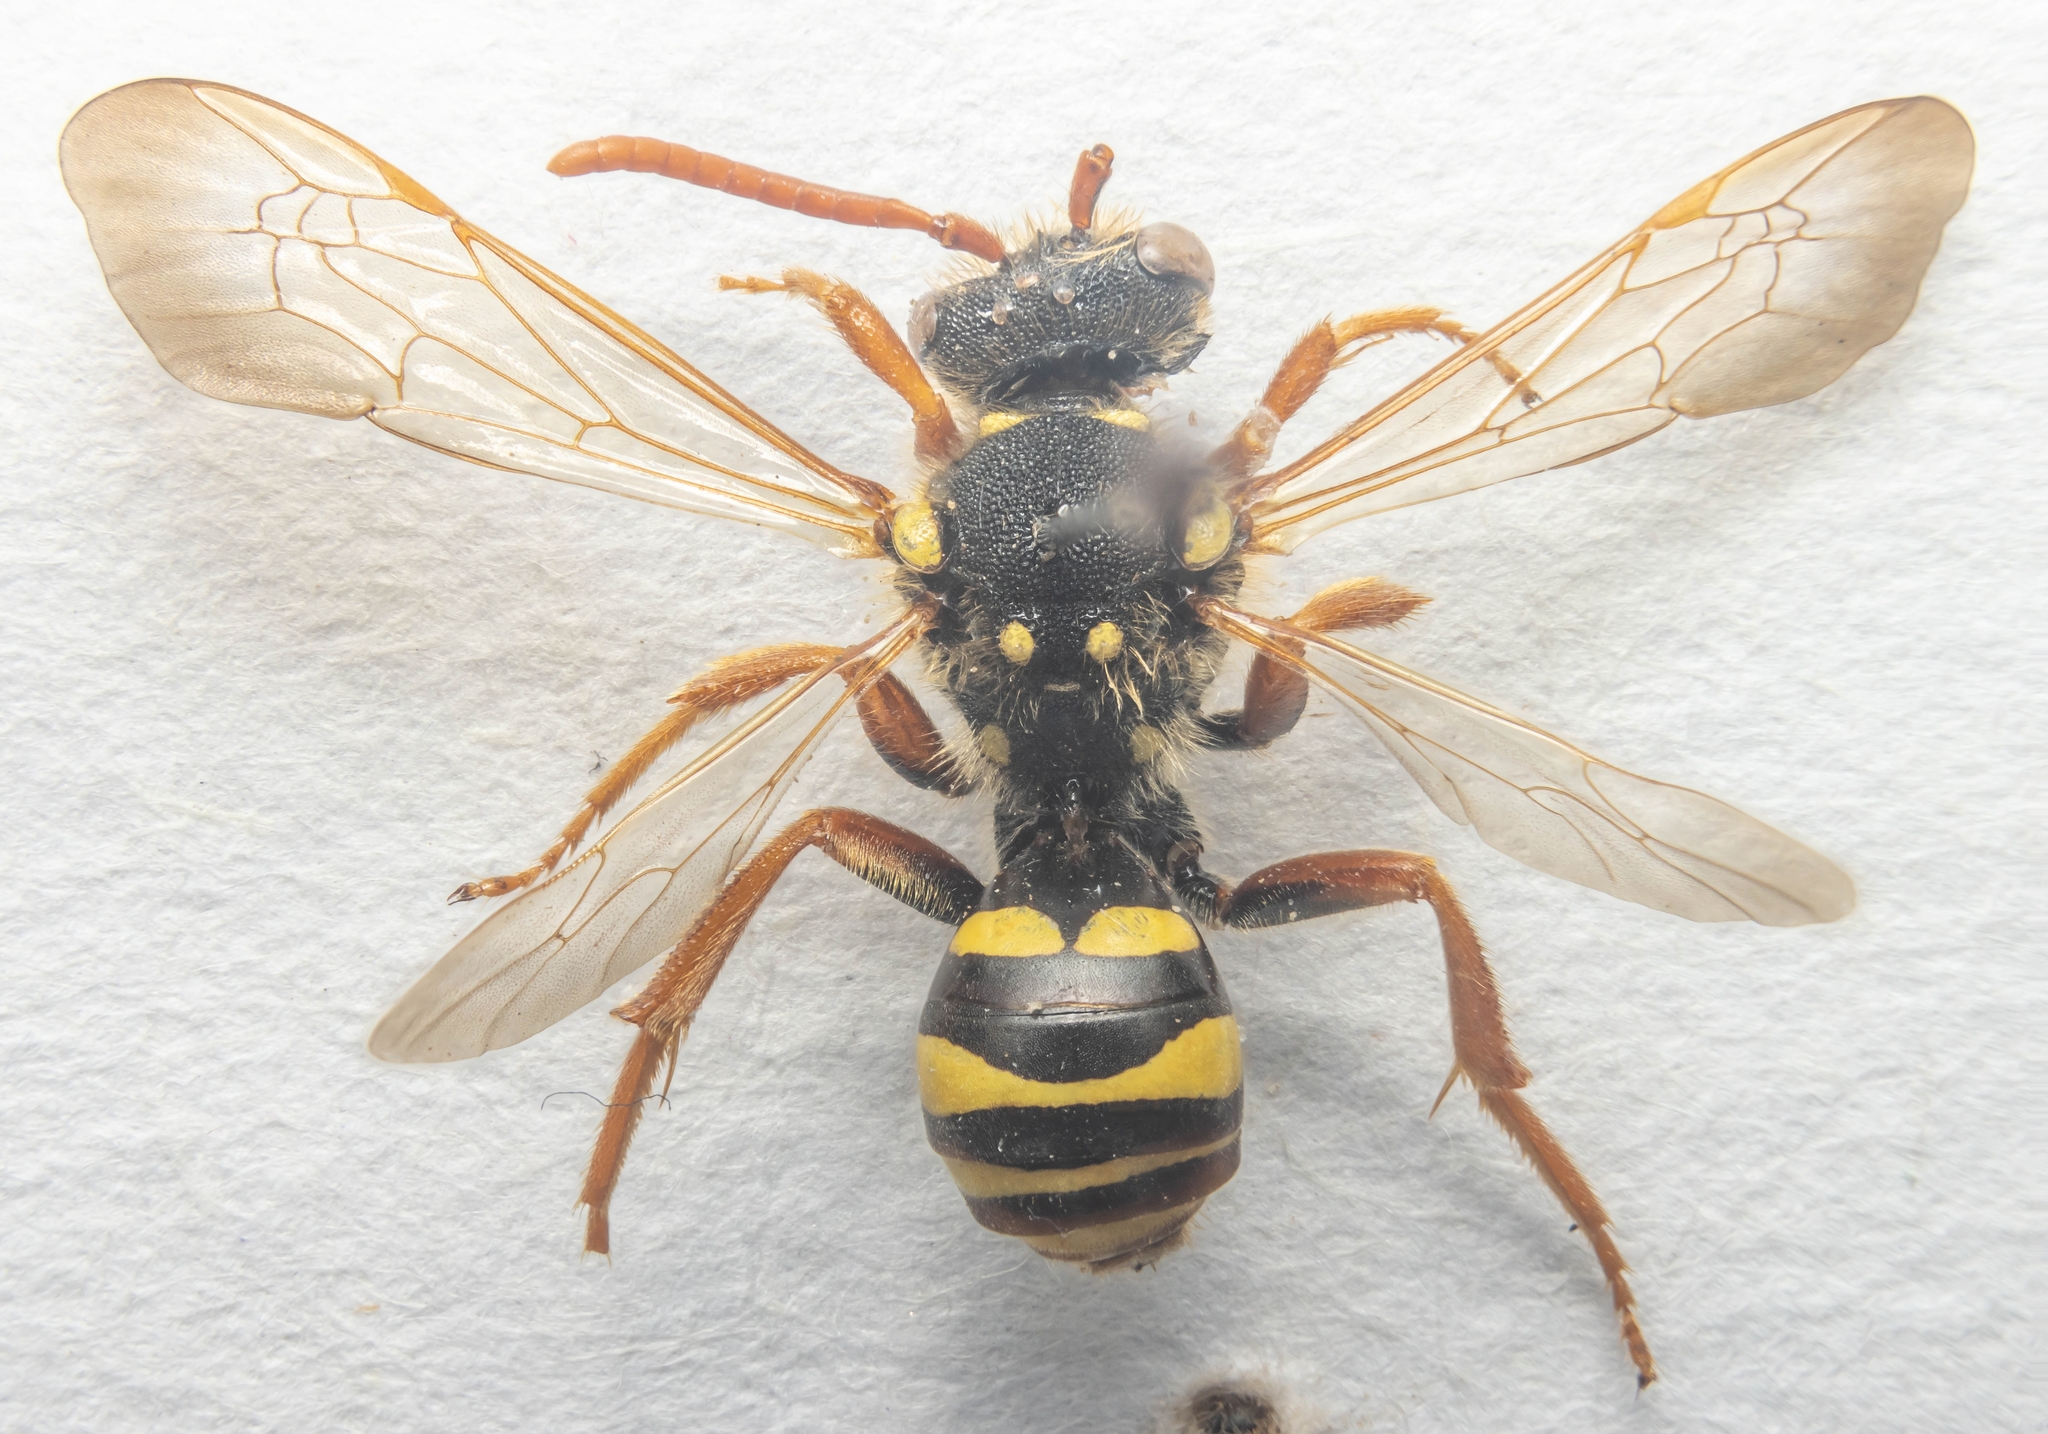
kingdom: Animalia
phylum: Arthropoda
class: Insecta
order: Hymenoptera
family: Apidae
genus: Nomada
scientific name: Nomada goodeniana
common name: Gooden's nomad bee
